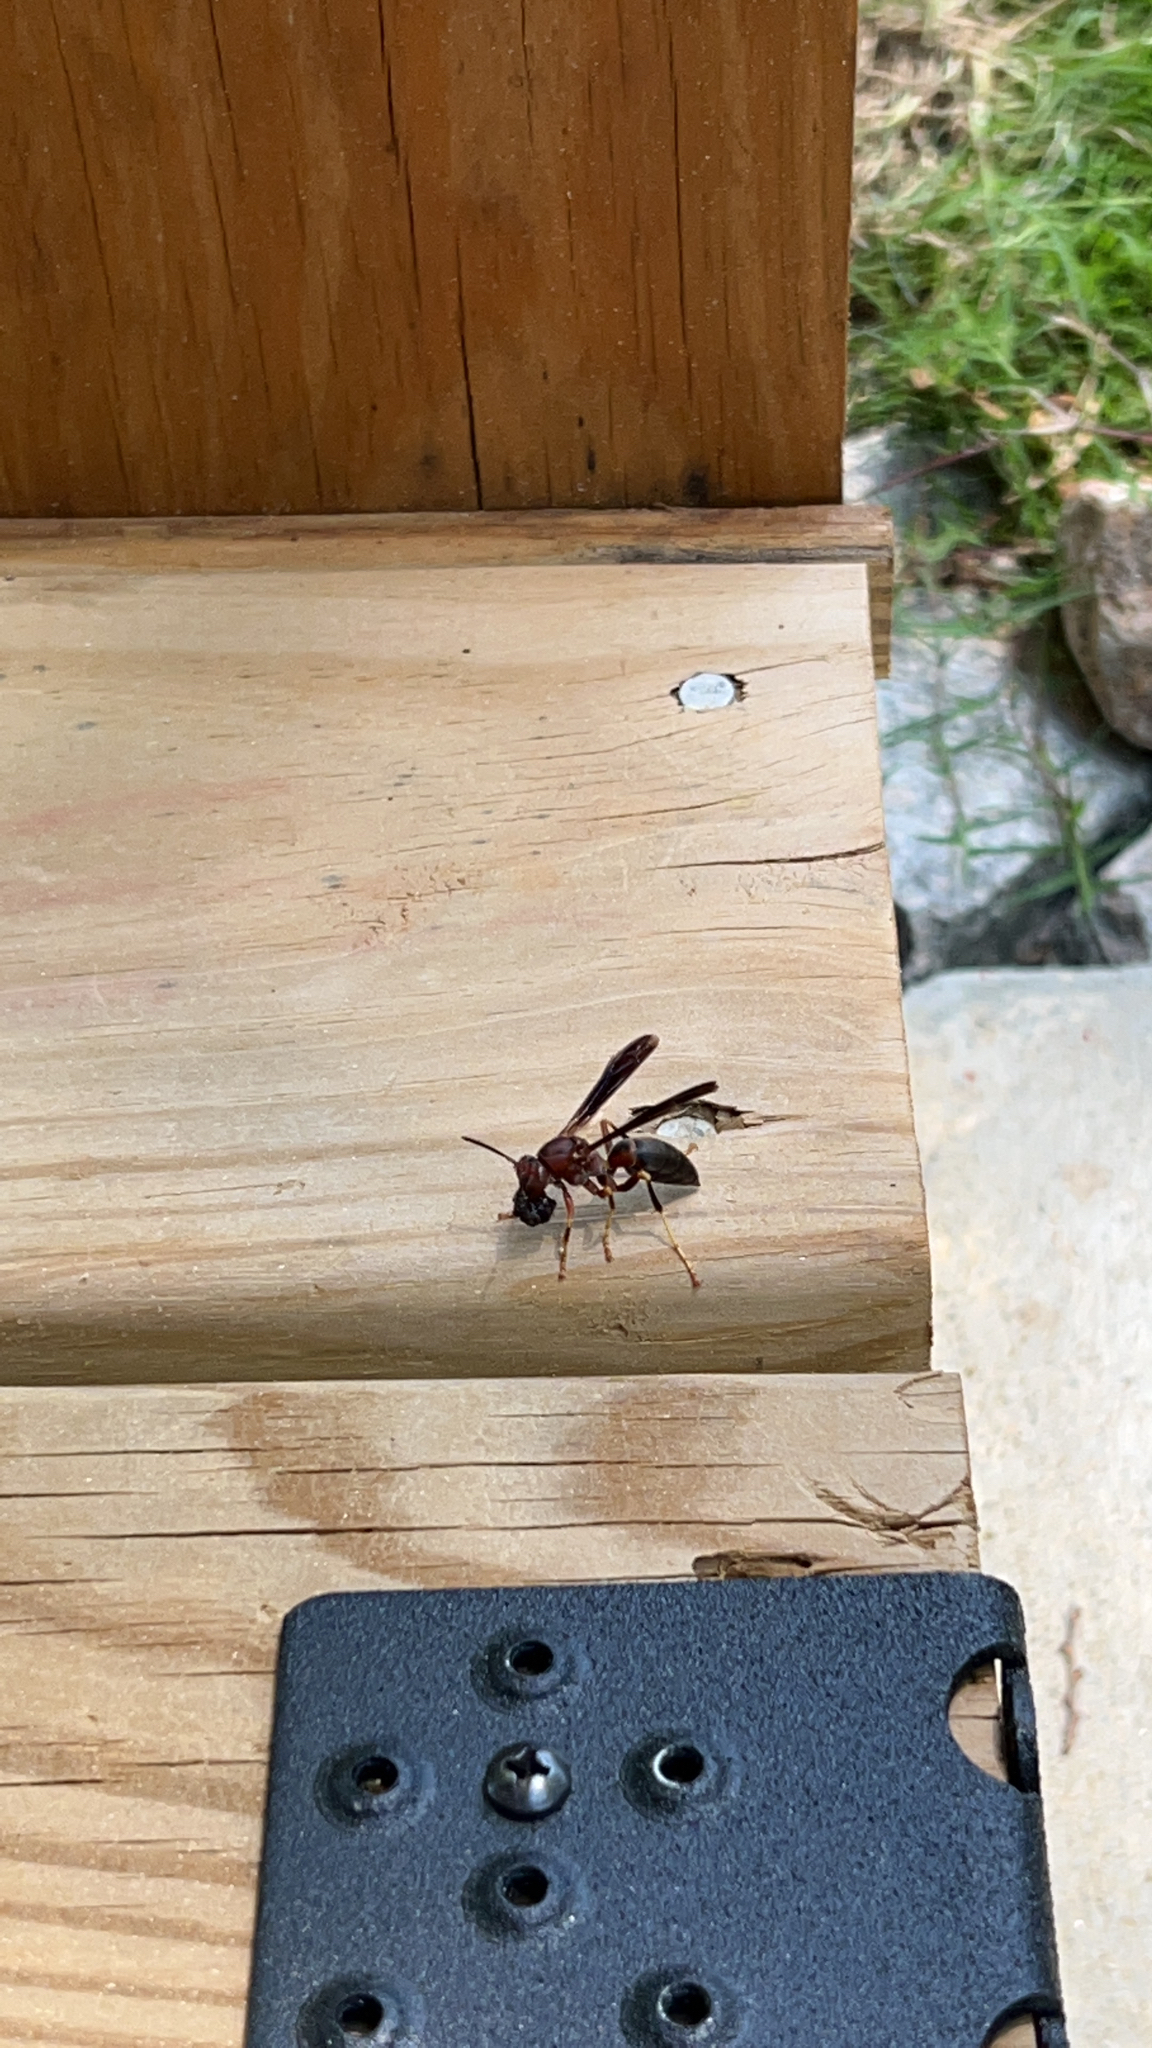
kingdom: Animalia
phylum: Arthropoda
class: Insecta
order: Hymenoptera
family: Eumenidae
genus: Polistes
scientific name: Polistes metricus
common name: Metric paper wasp
